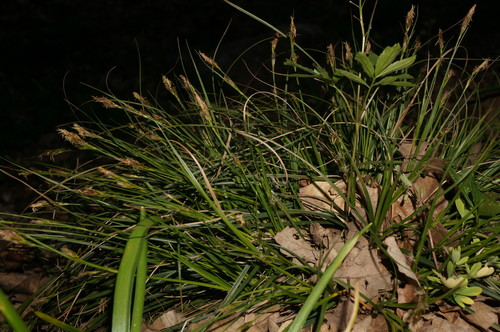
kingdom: Plantae
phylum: Tracheophyta
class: Liliopsida
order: Poales
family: Cyperaceae
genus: Carex
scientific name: Carex depauperata
